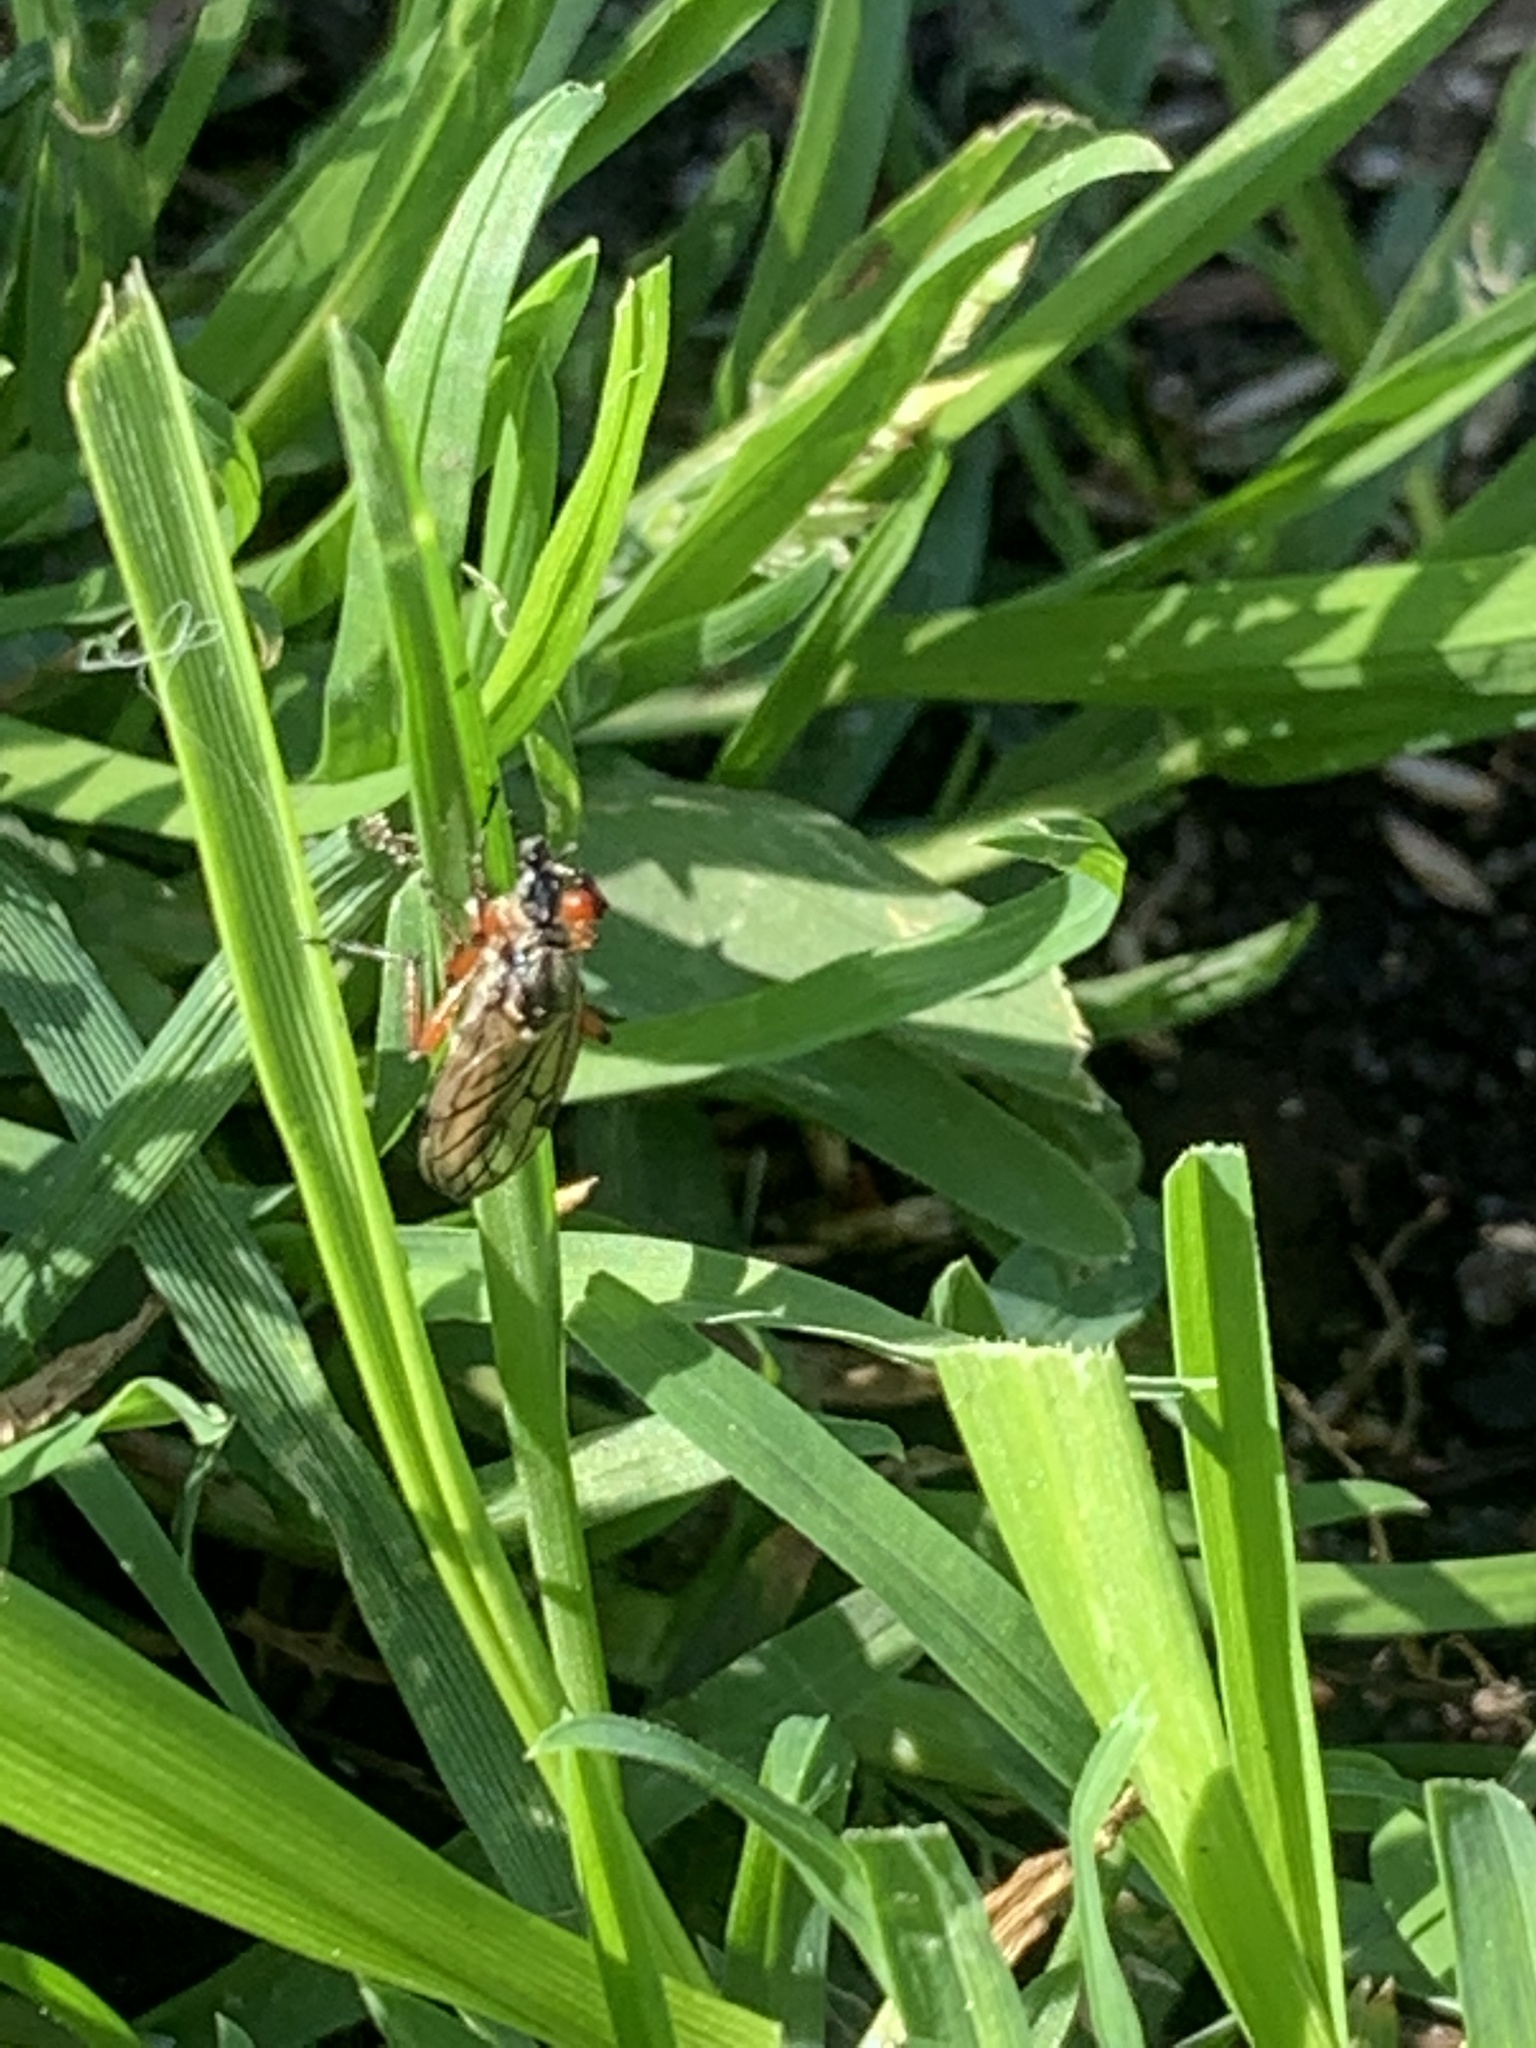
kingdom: Animalia
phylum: Arthropoda
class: Insecta
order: Diptera
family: Bibionidae
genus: Bibio
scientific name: Bibio
